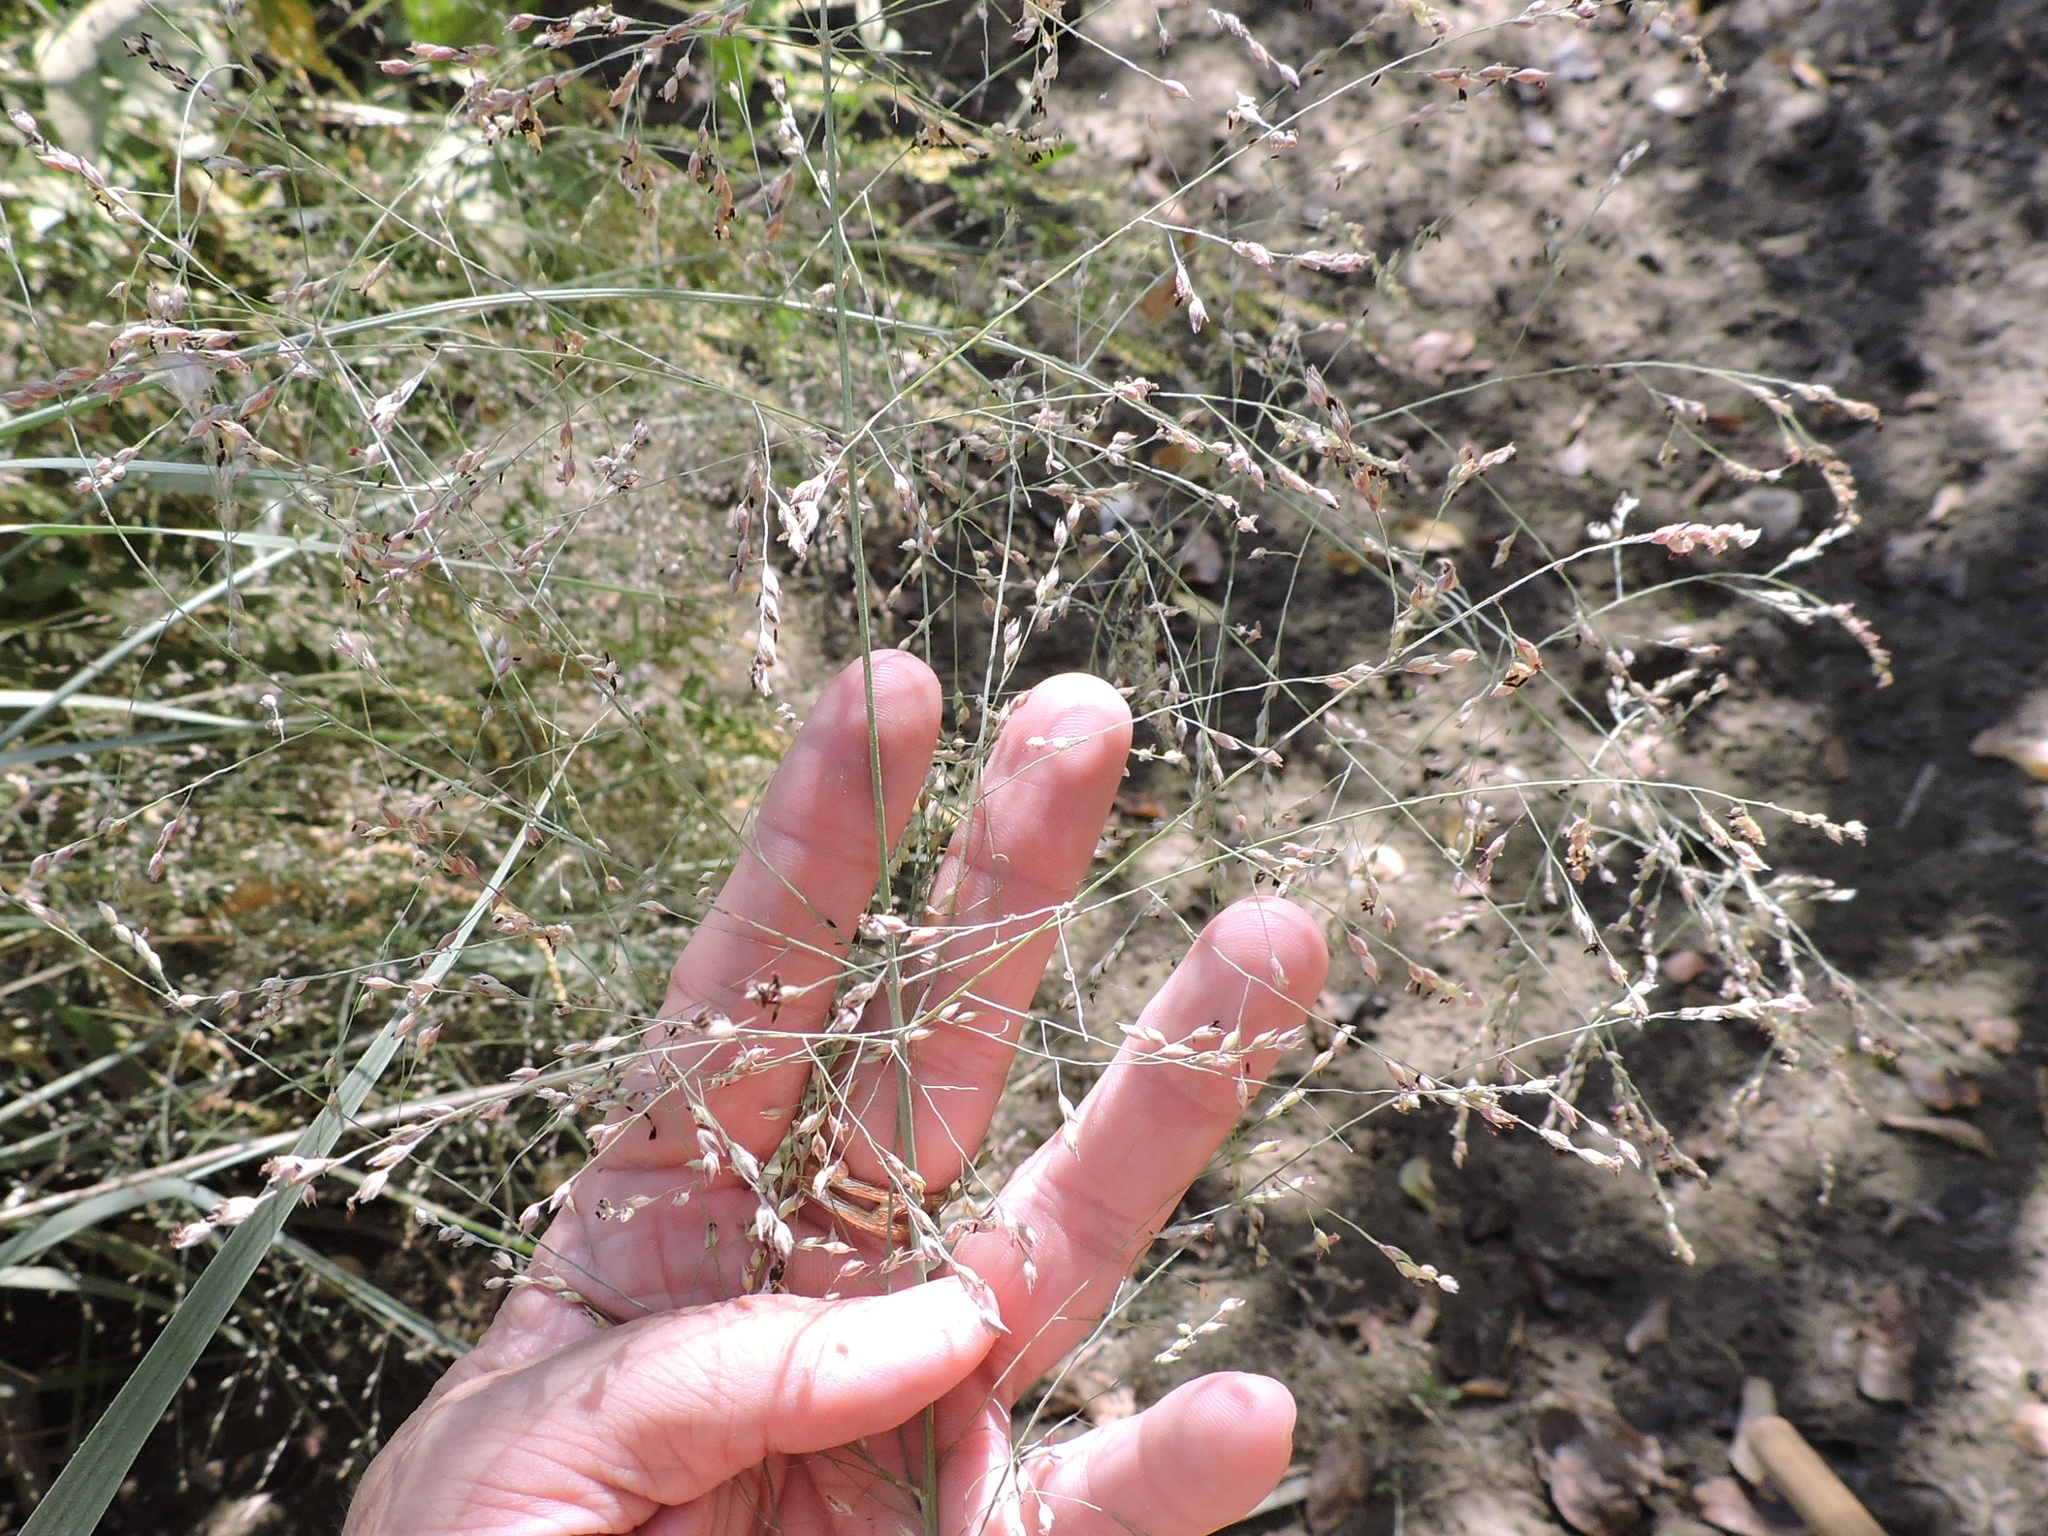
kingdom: Plantae
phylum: Tracheophyta
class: Liliopsida
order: Poales
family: Poaceae
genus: Panicum
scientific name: Panicum virgatum
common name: Switchgrass
